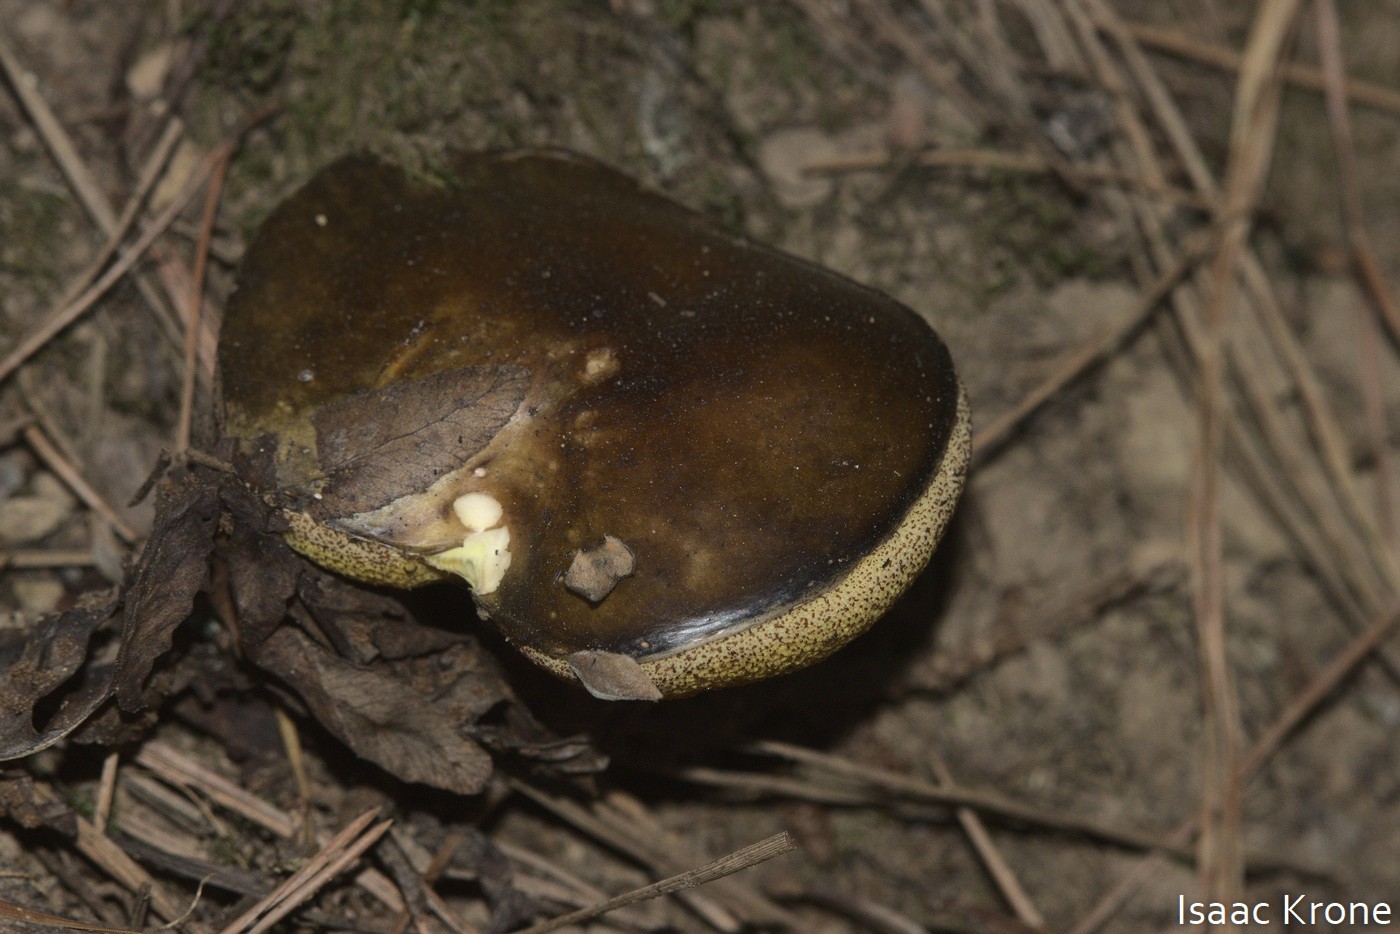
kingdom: Fungi
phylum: Basidiomycota
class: Agaricomycetes
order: Boletales
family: Suillaceae
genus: Suillus
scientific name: Suillus pungens
